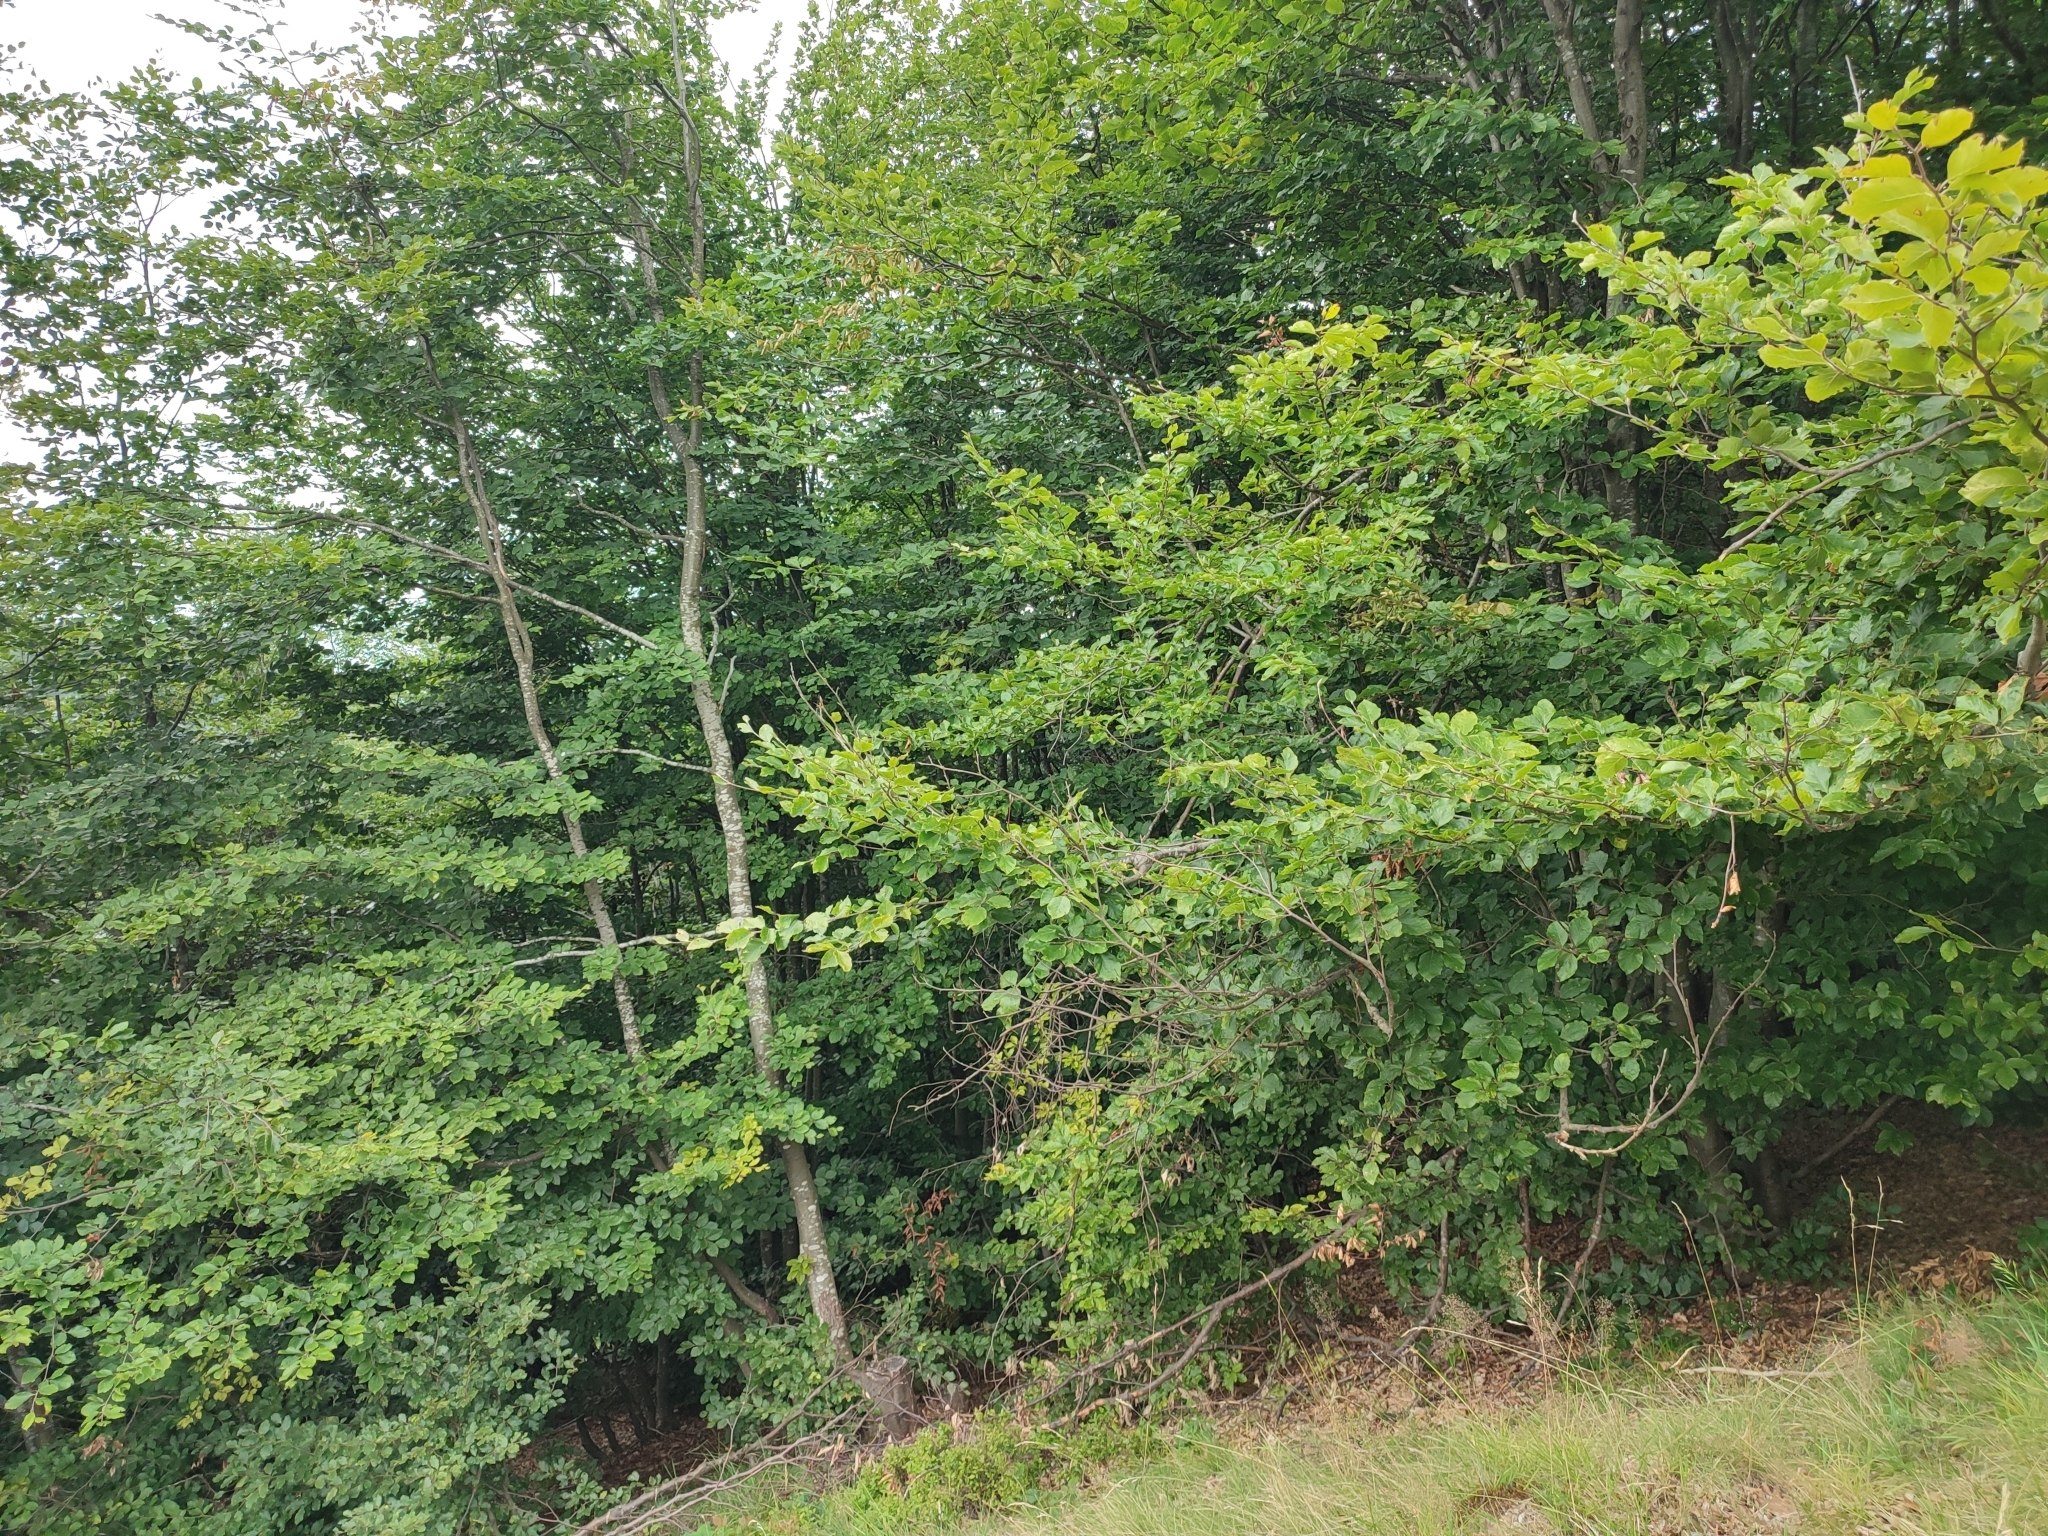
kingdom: Plantae
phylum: Tracheophyta
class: Magnoliopsida
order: Fagales
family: Fagaceae
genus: Fagus
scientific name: Fagus sylvatica
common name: Beech
